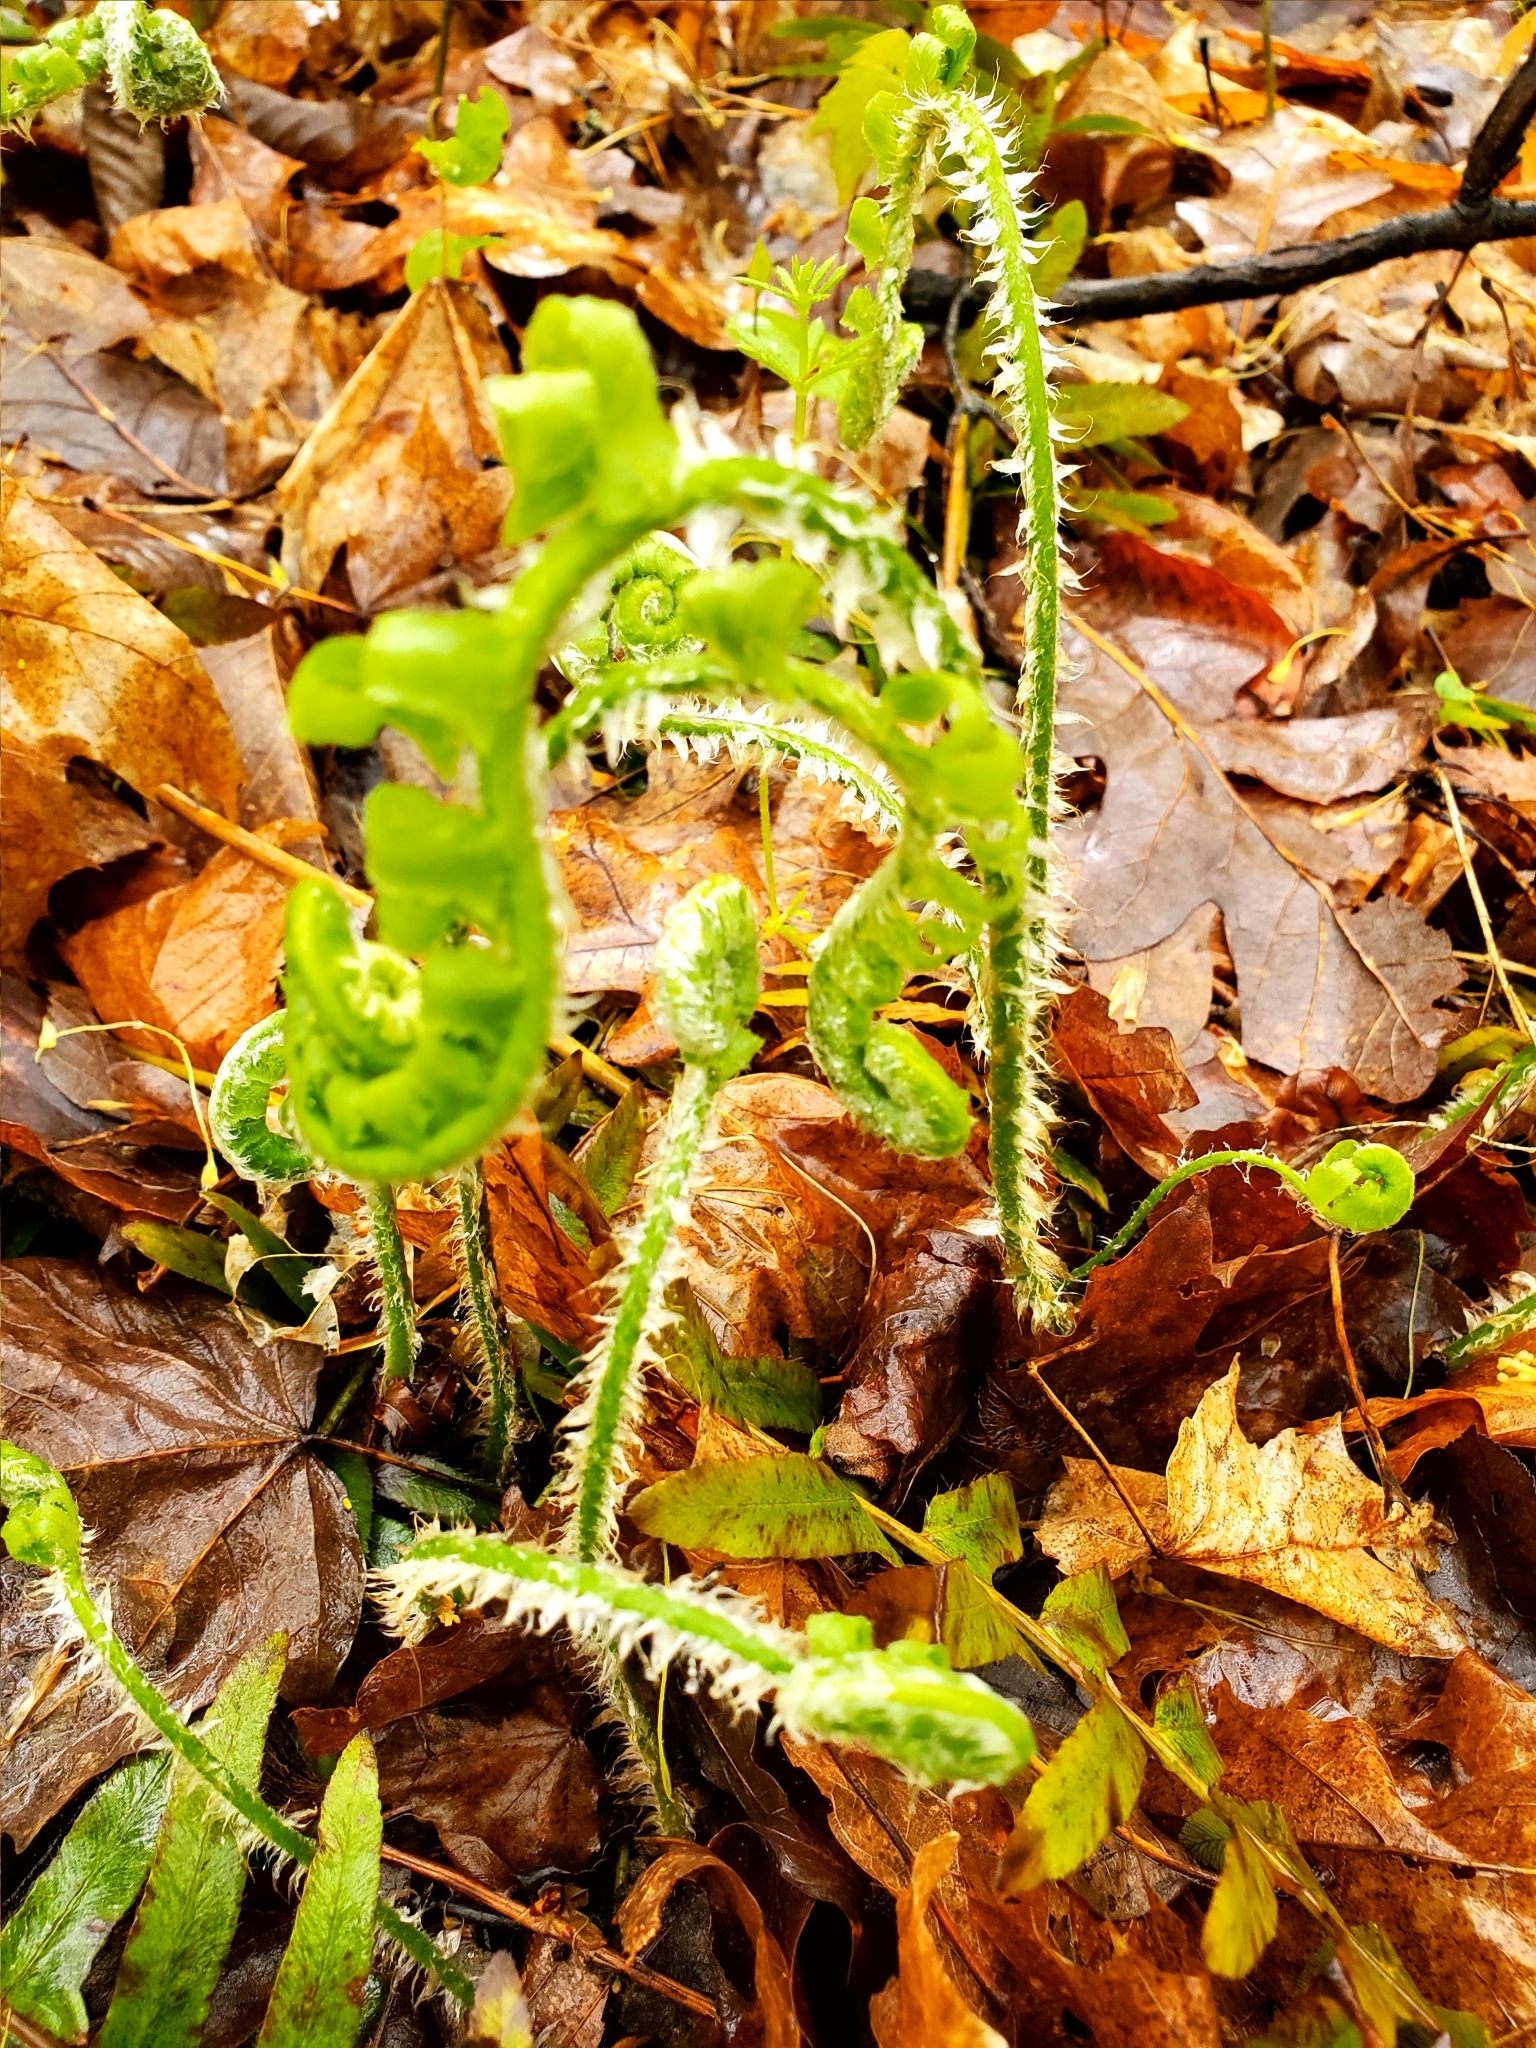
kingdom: Plantae
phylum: Tracheophyta
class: Polypodiopsida
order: Polypodiales
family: Dryopteridaceae
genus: Polystichum
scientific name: Polystichum acrostichoides
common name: Christmas fern
